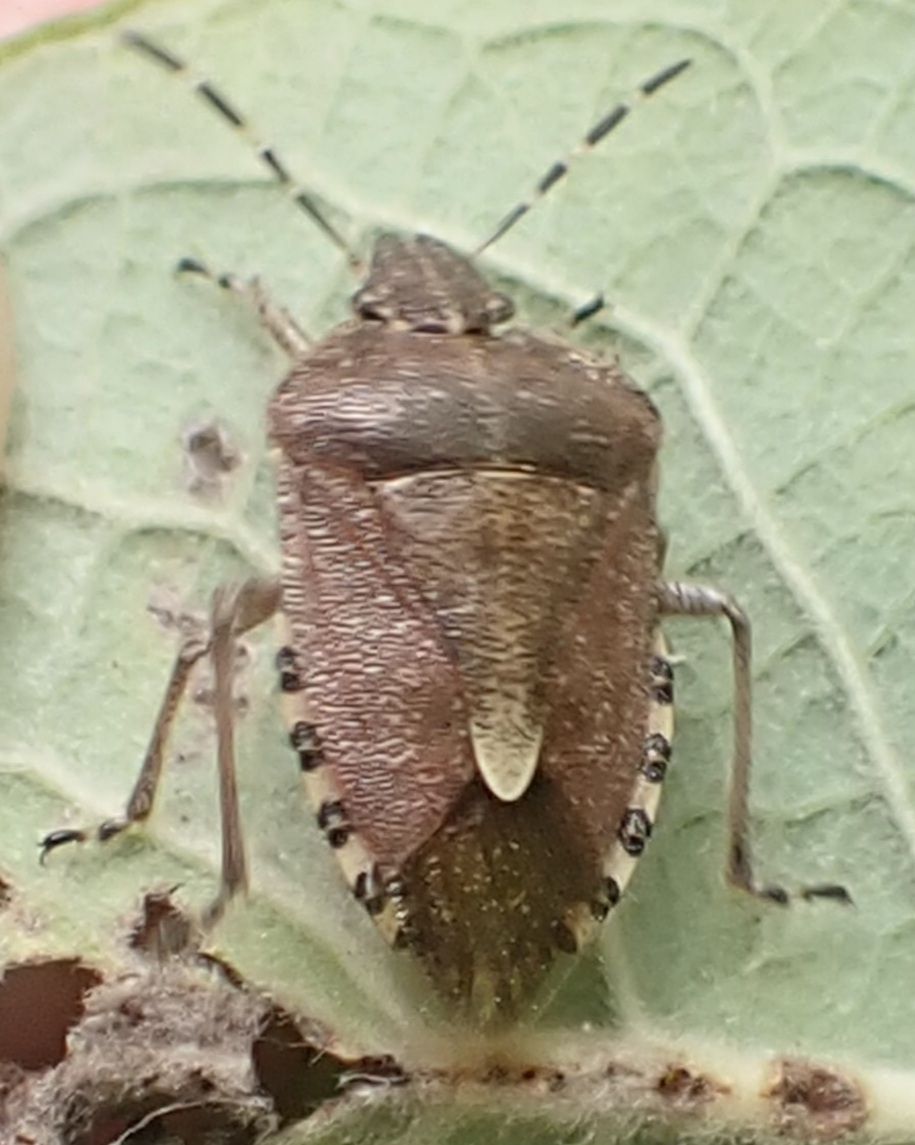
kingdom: Animalia
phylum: Arthropoda
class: Insecta
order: Hemiptera
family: Pentatomidae
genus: Dolycoris
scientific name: Dolycoris baccarum
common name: Sloe bug
